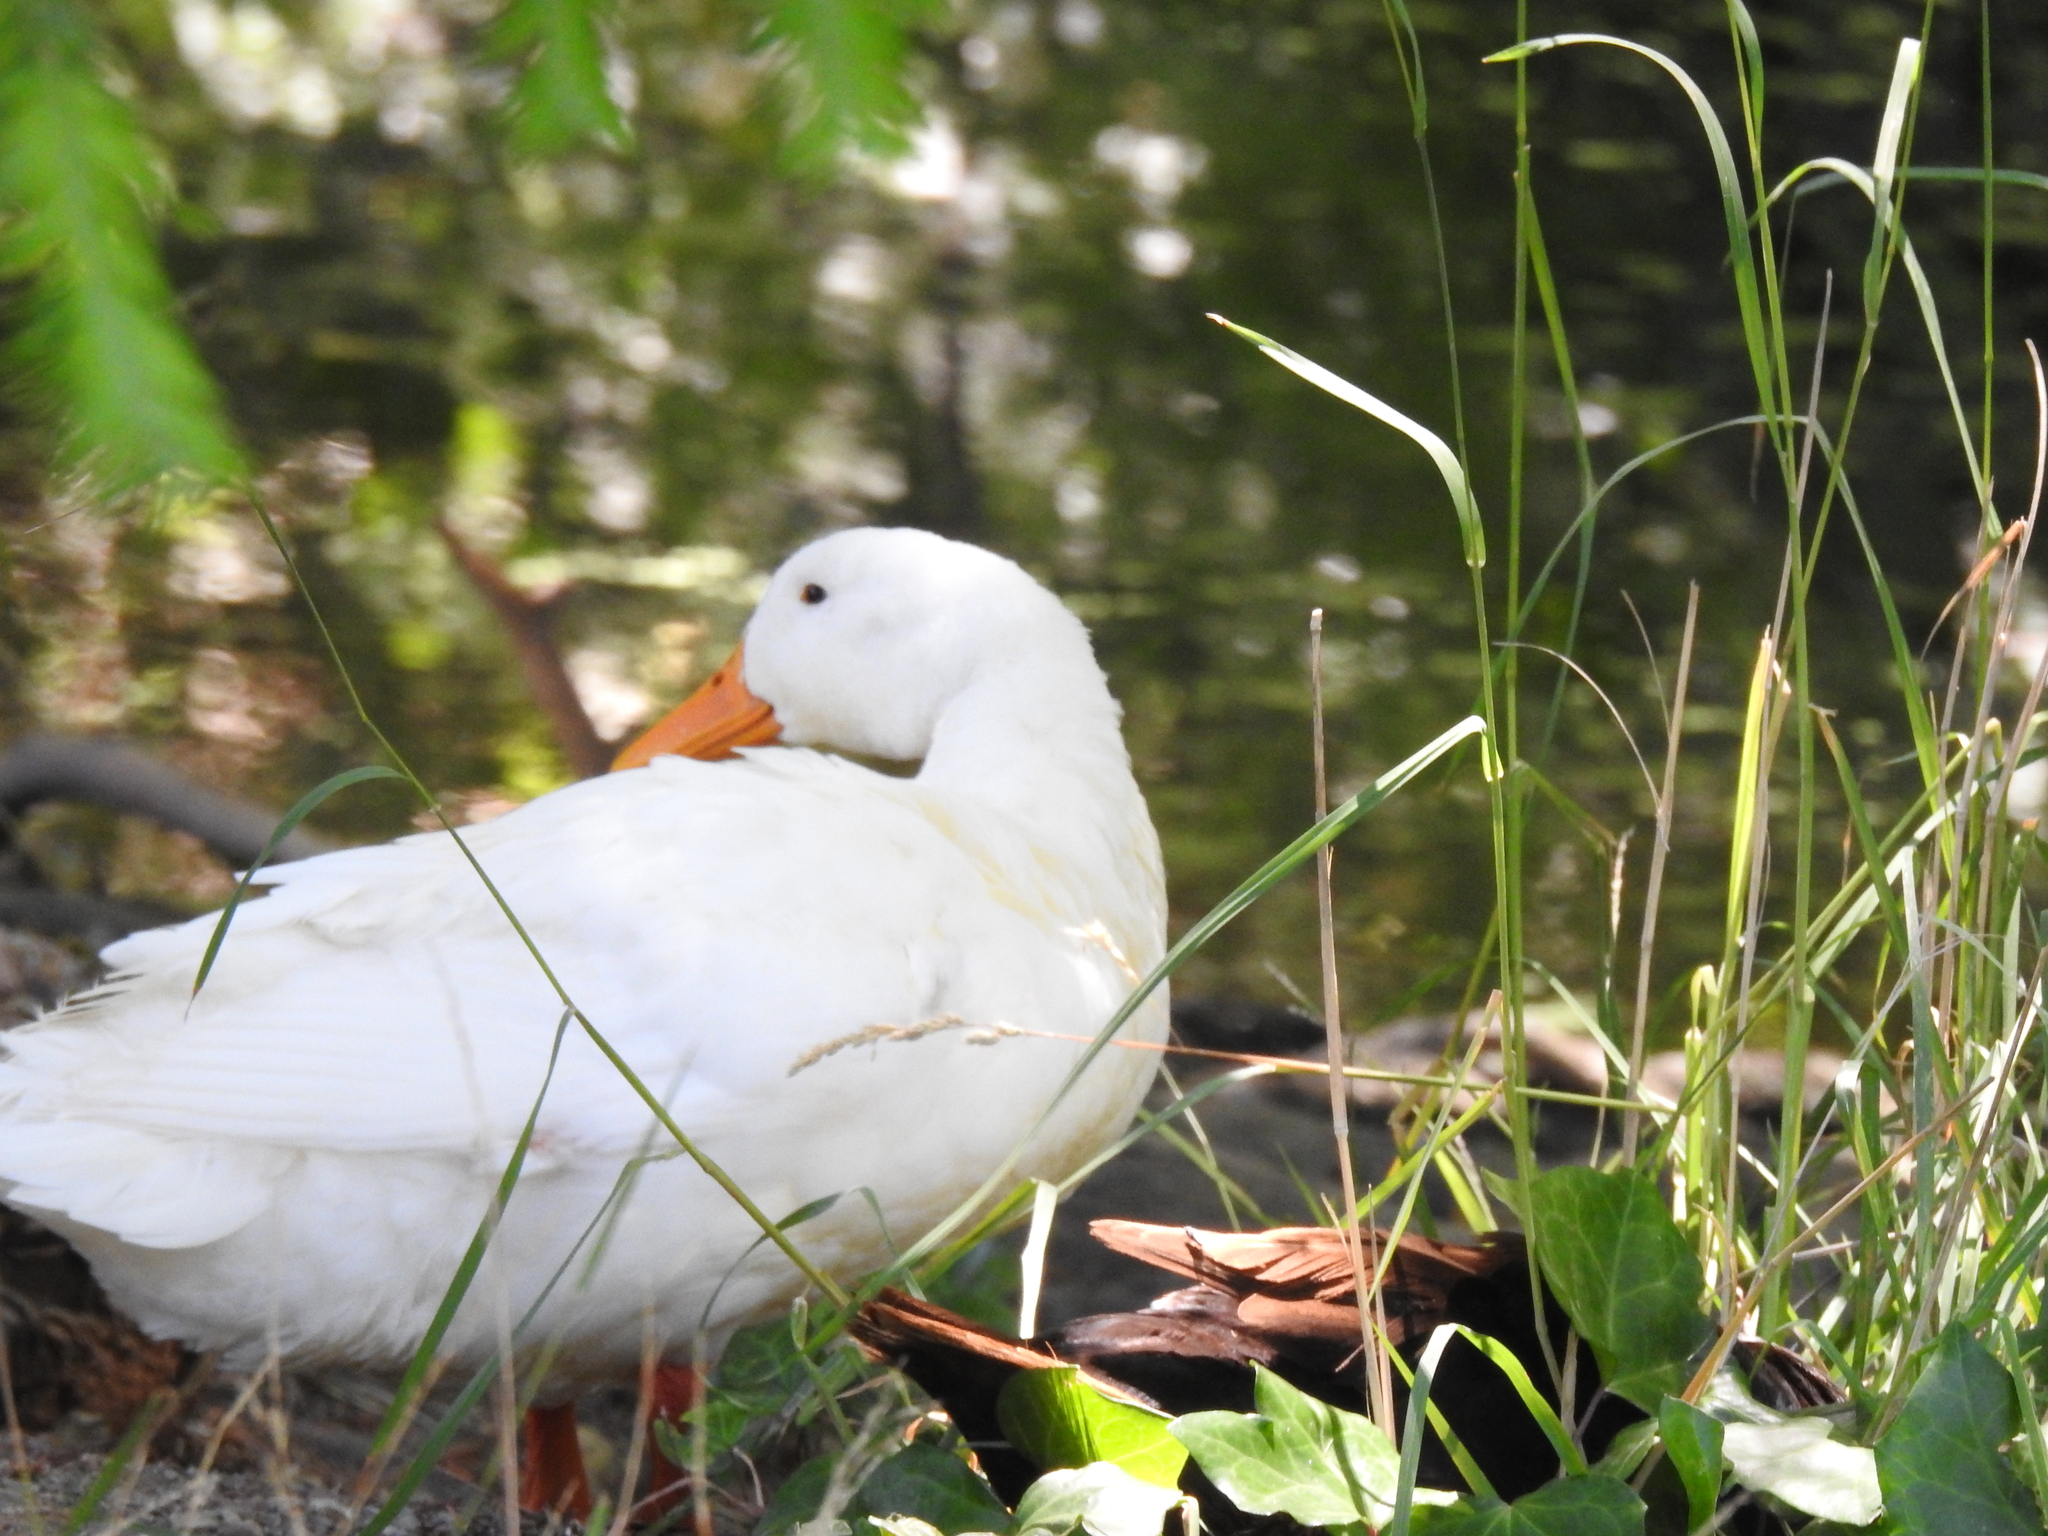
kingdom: Animalia
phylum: Chordata
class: Aves
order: Anseriformes
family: Anatidae
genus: Anas
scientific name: Anas platyrhynchos
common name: Mallard
